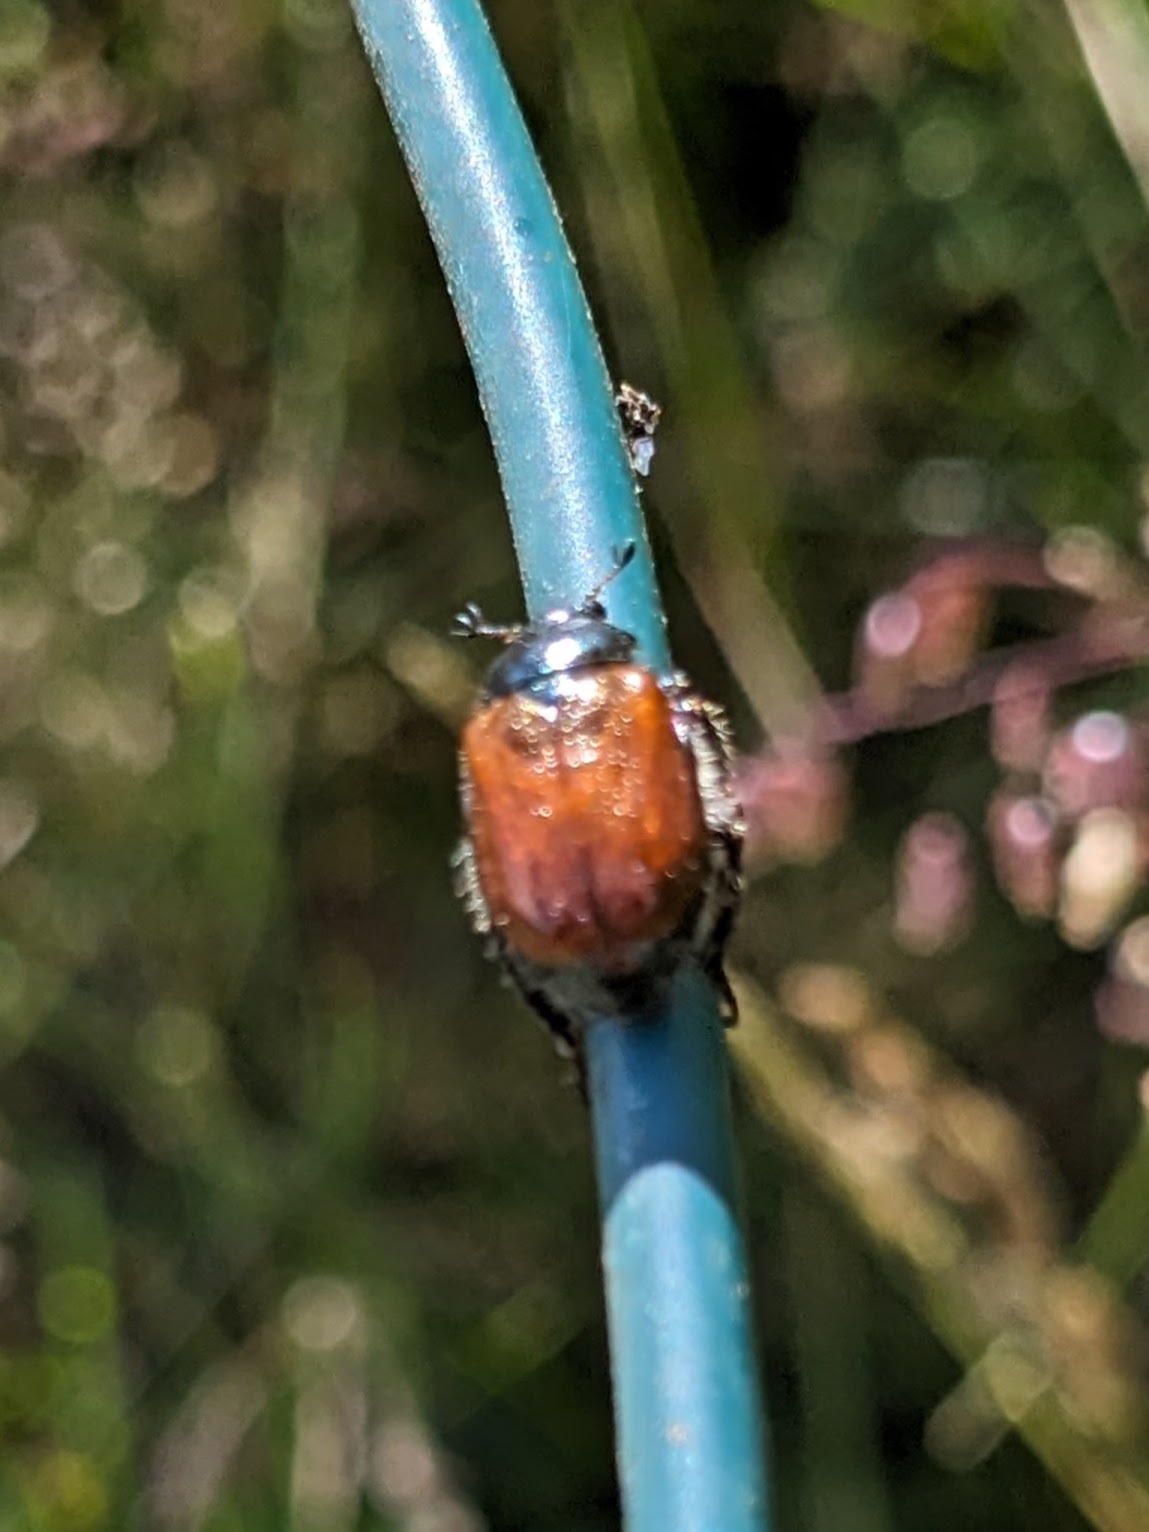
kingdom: Animalia
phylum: Arthropoda
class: Insecta
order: Coleoptera
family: Scarabaeidae
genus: Phyllopertha
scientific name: Phyllopertha horticola
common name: Garden chafer
